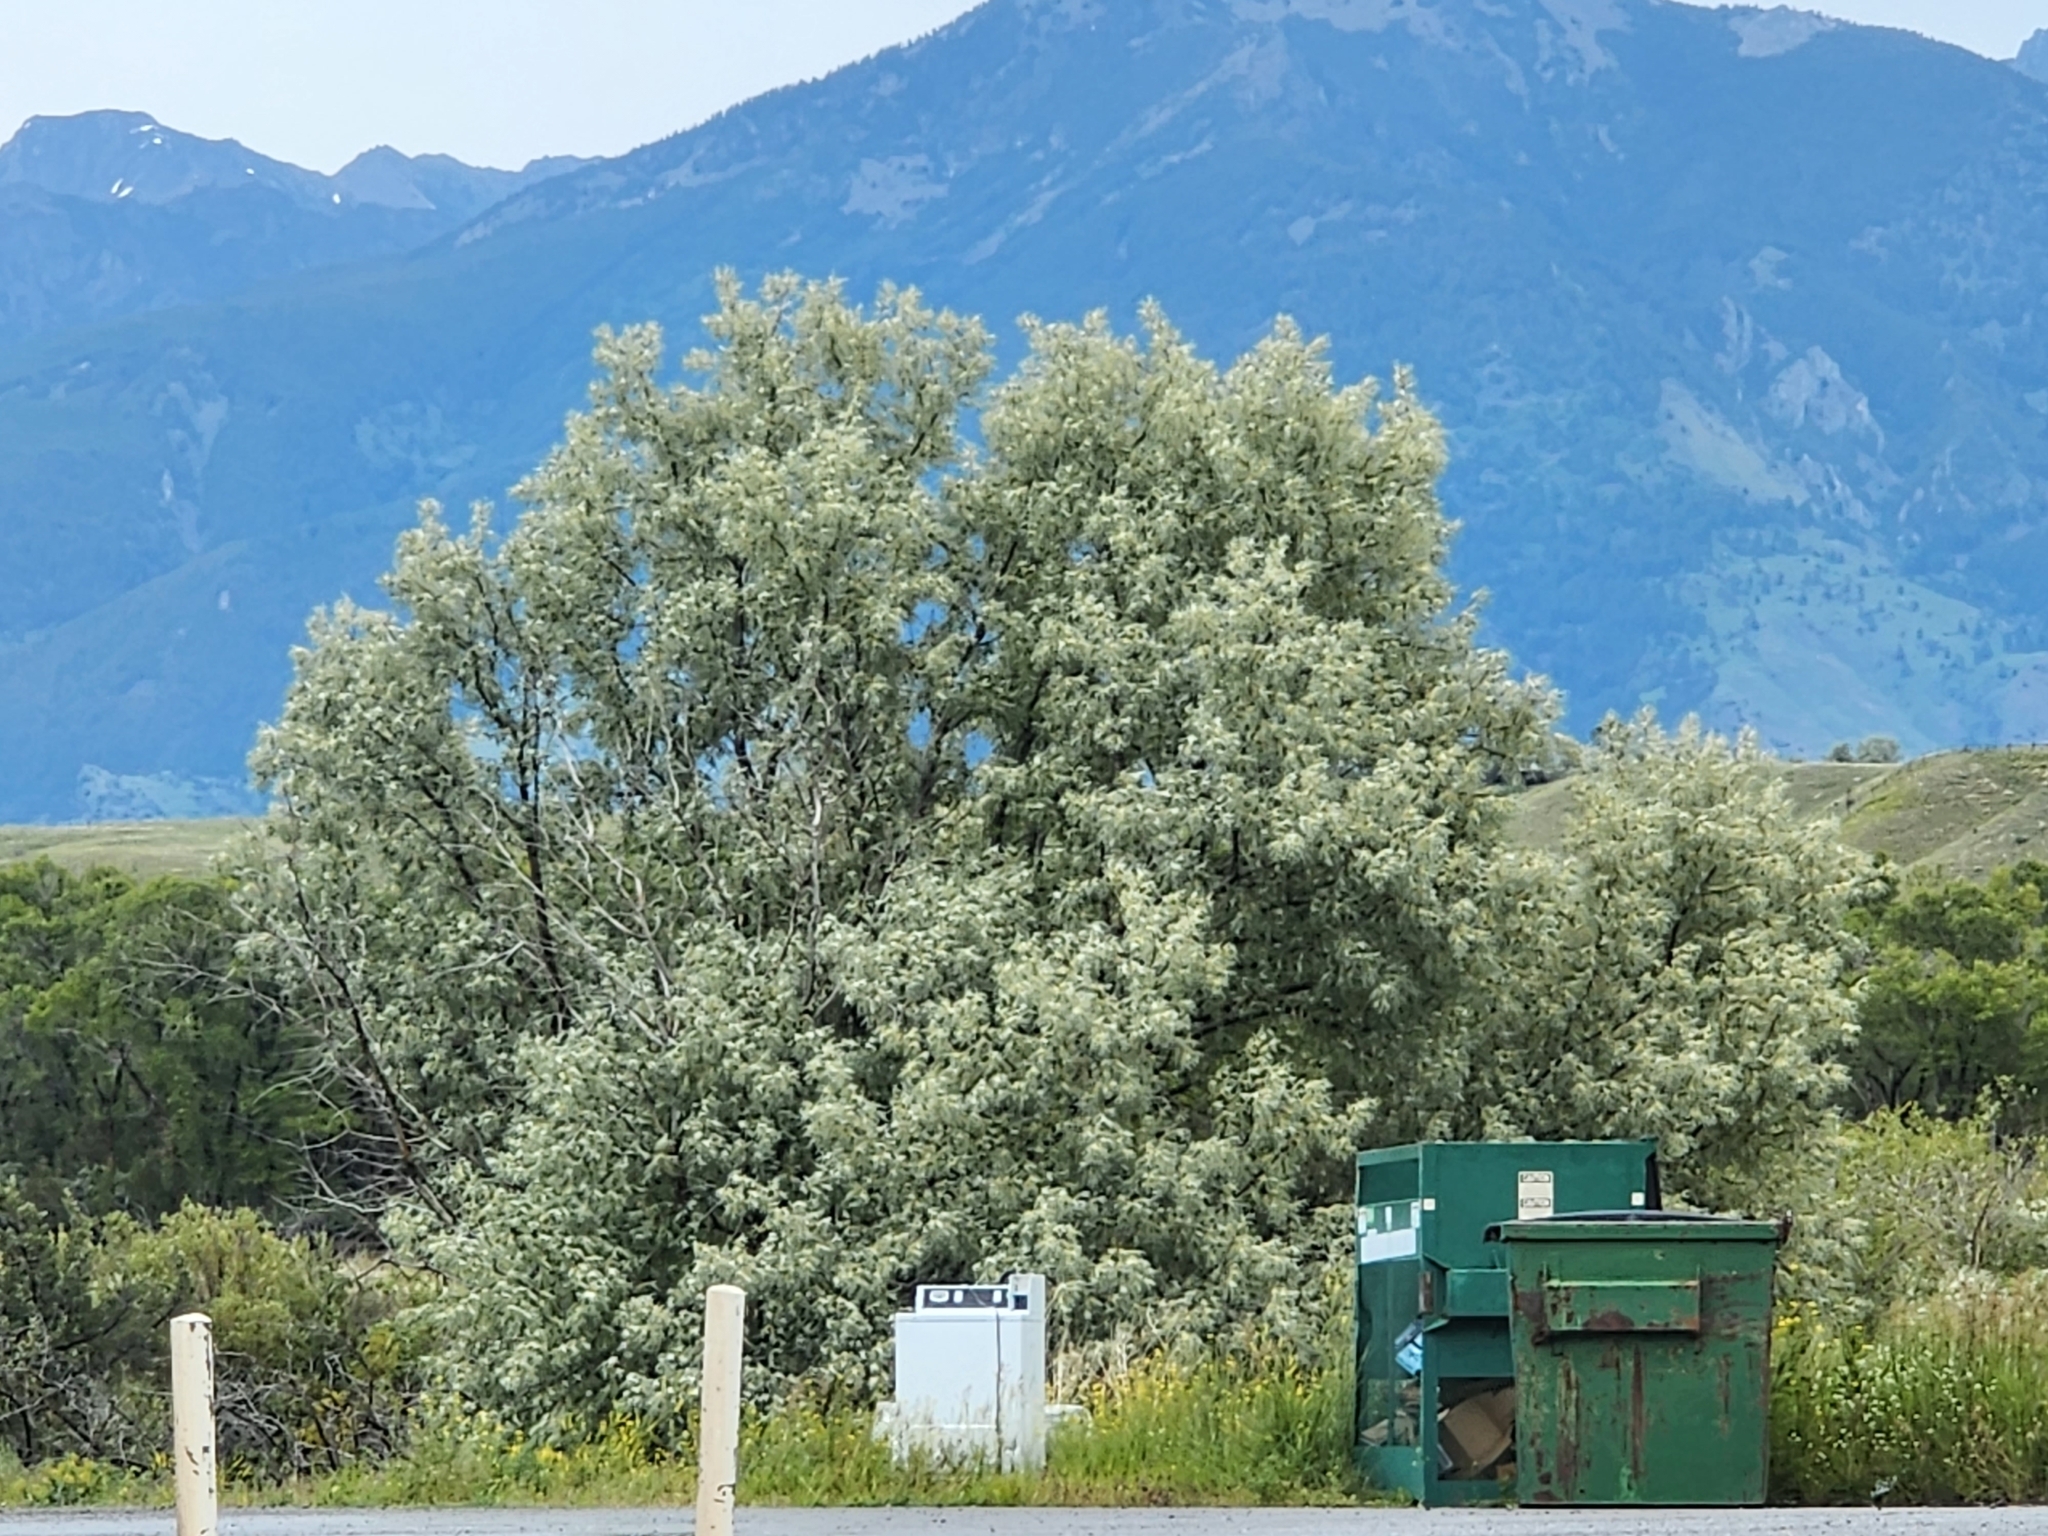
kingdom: Plantae
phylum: Tracheophyta
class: Magnoliopsida
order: Rosales
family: Elaeagnaceae
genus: Elaeagnus
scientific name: Elaeagnus angustifolia
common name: Russian olive
